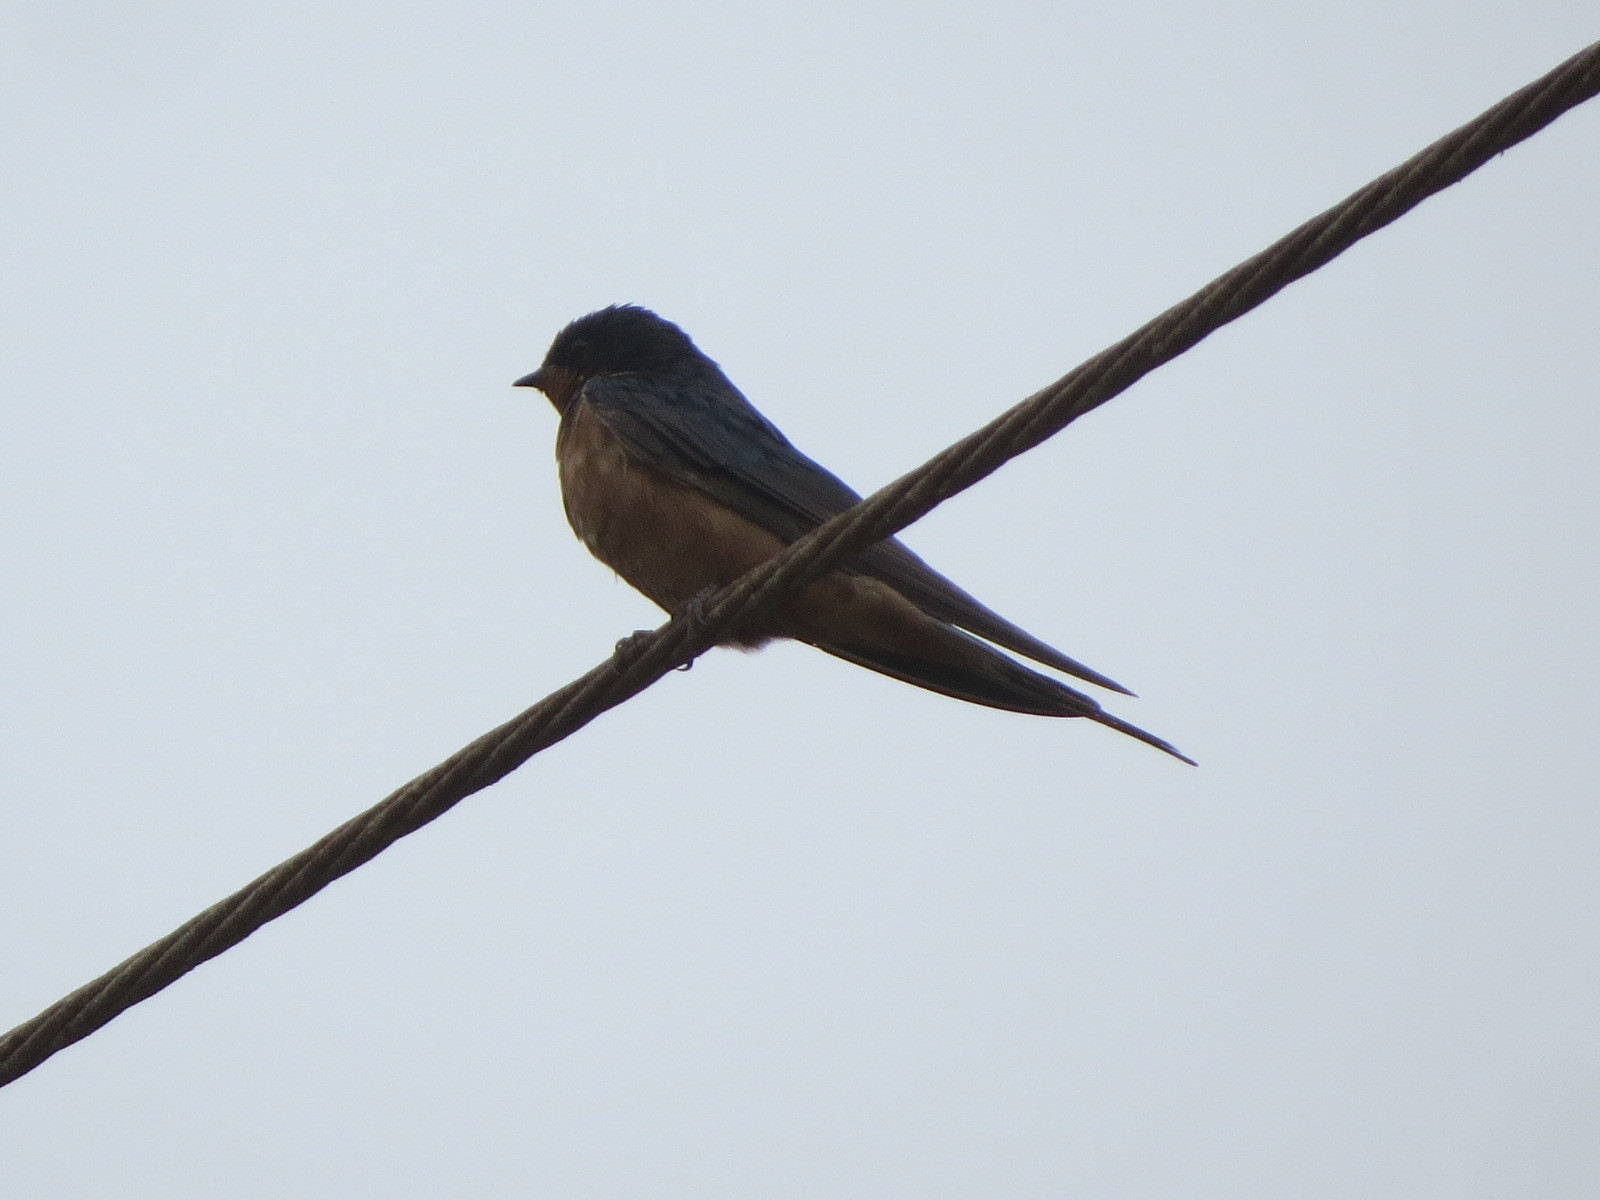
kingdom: Animalia
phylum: Chordata
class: Aves
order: Passeriformes
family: Hirundinidae
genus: Hirundo
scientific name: Hirundo rustica
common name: Barn swallow
